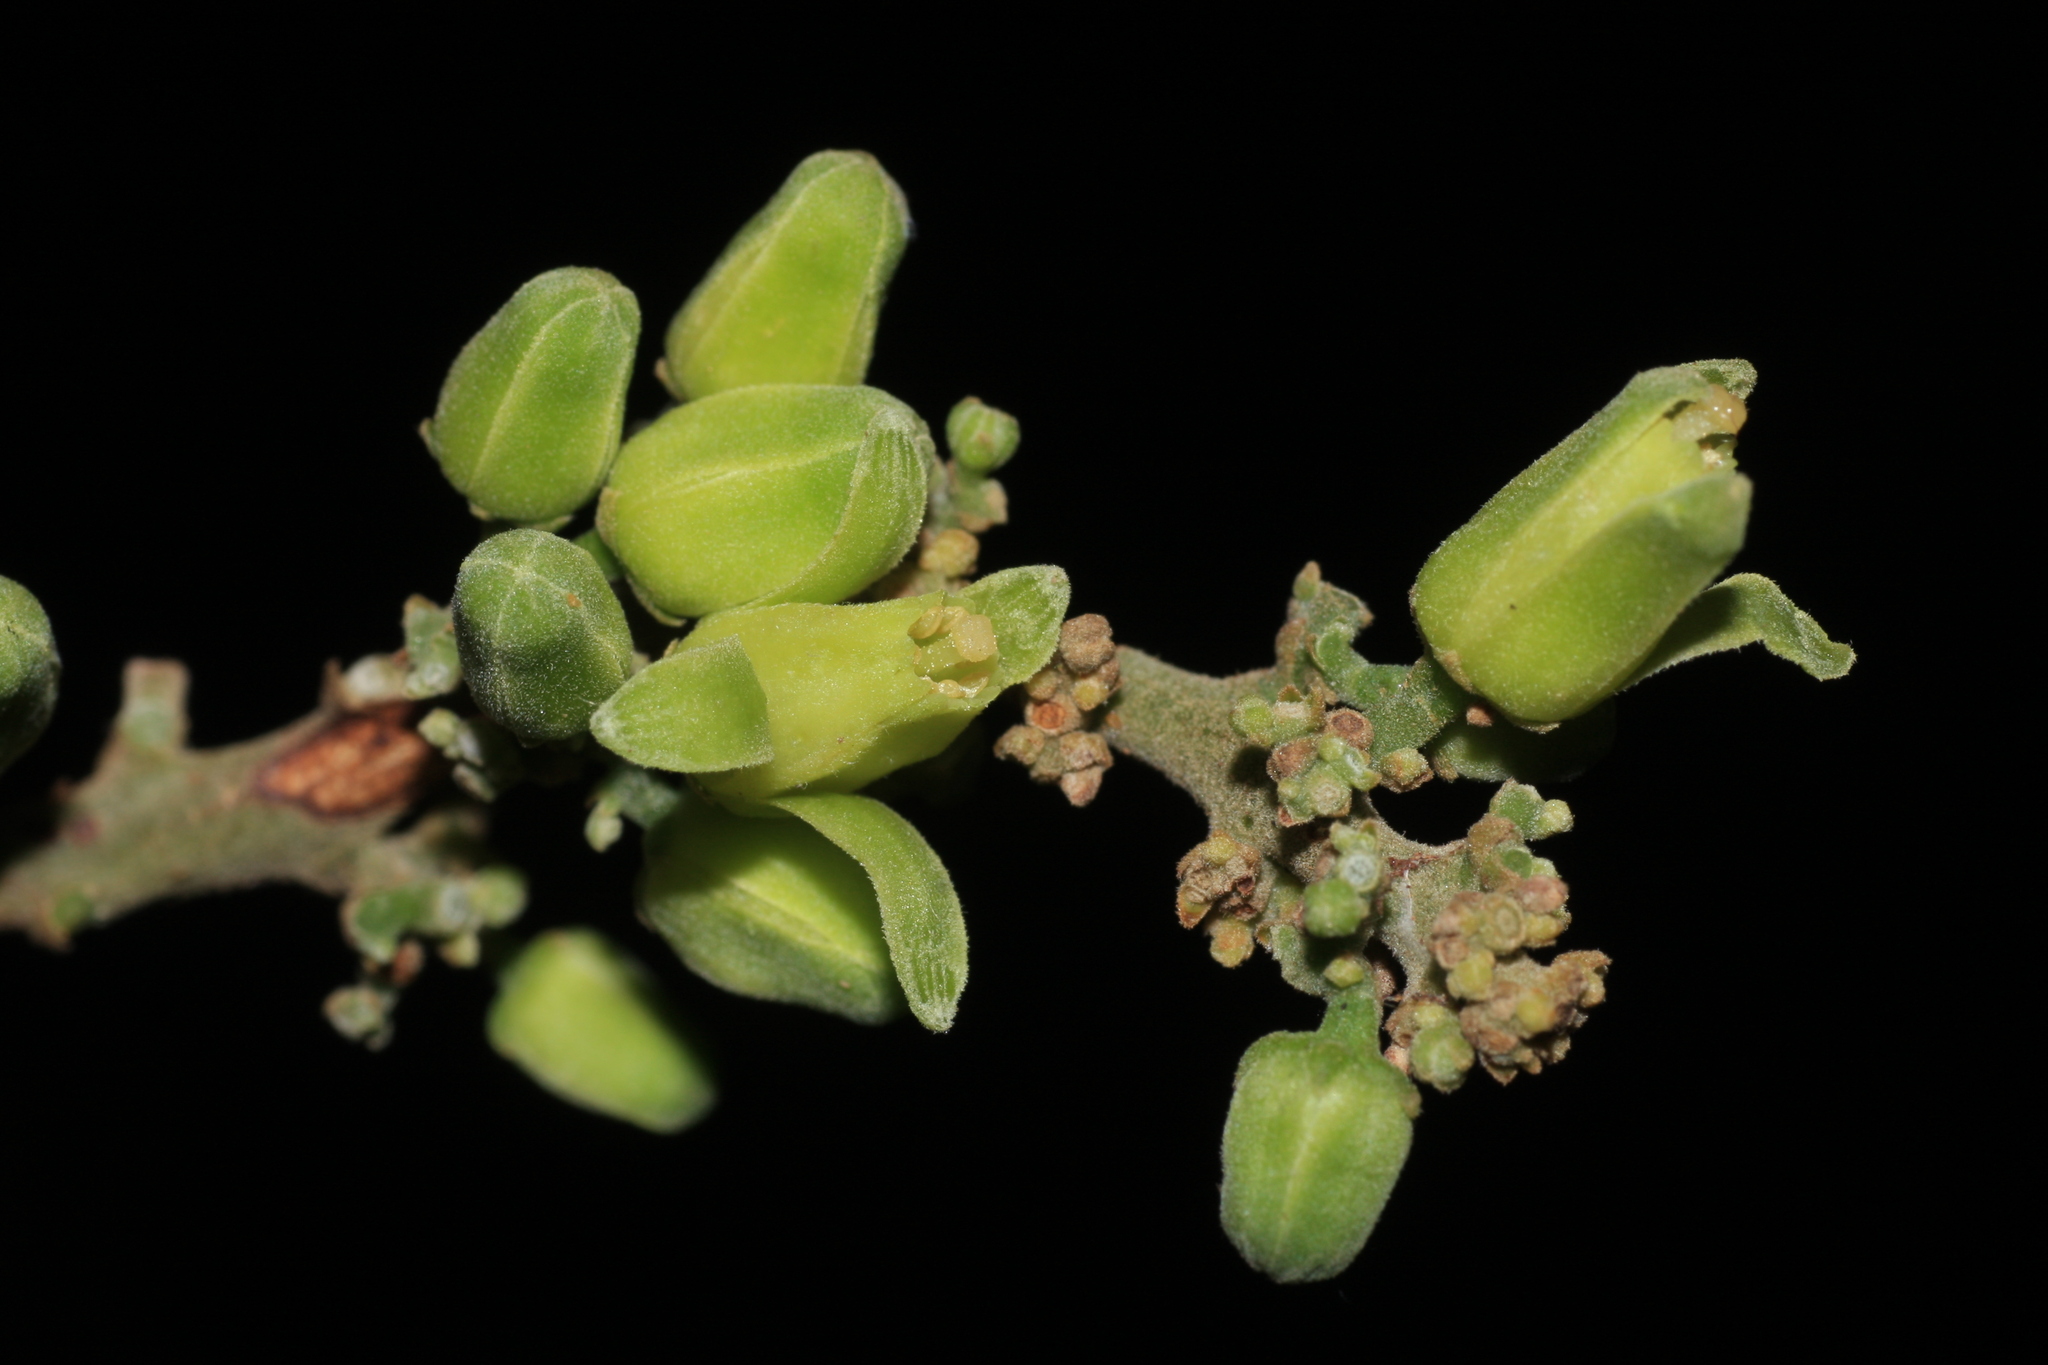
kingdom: Plantae
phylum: Tracheophyta
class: Magnoliopsida
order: Sapindales
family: Meliaceae
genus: Dysoxylum
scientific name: Dysoxylum malabaricum
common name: White cedar
